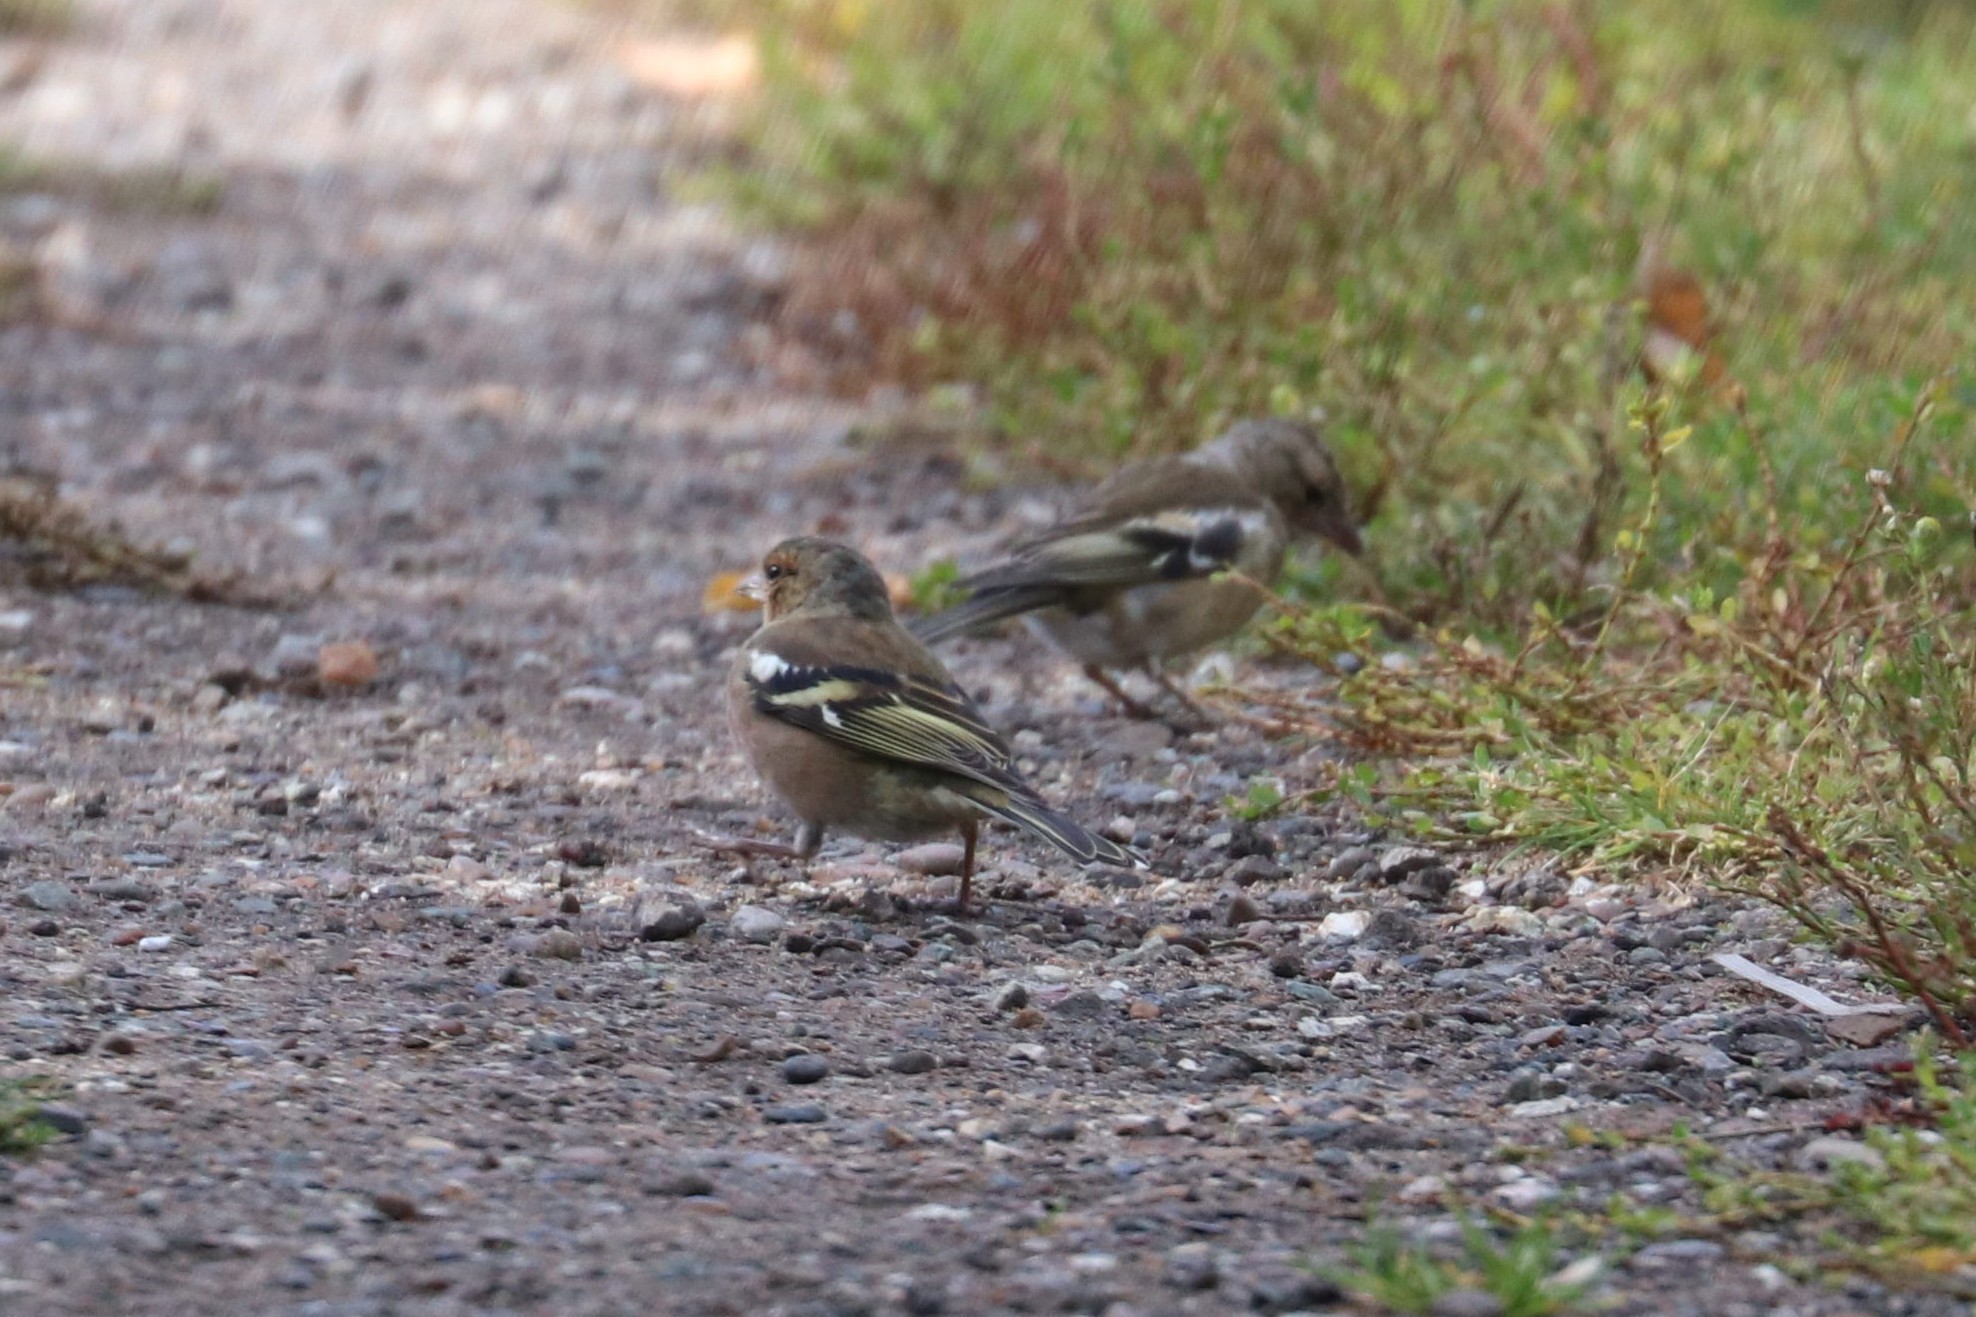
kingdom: Animalia
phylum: Chordata
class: Aves
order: Passeriformes
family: Fringillidae
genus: Fringilla
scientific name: Fringilla coelebs
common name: Common chaffinch
